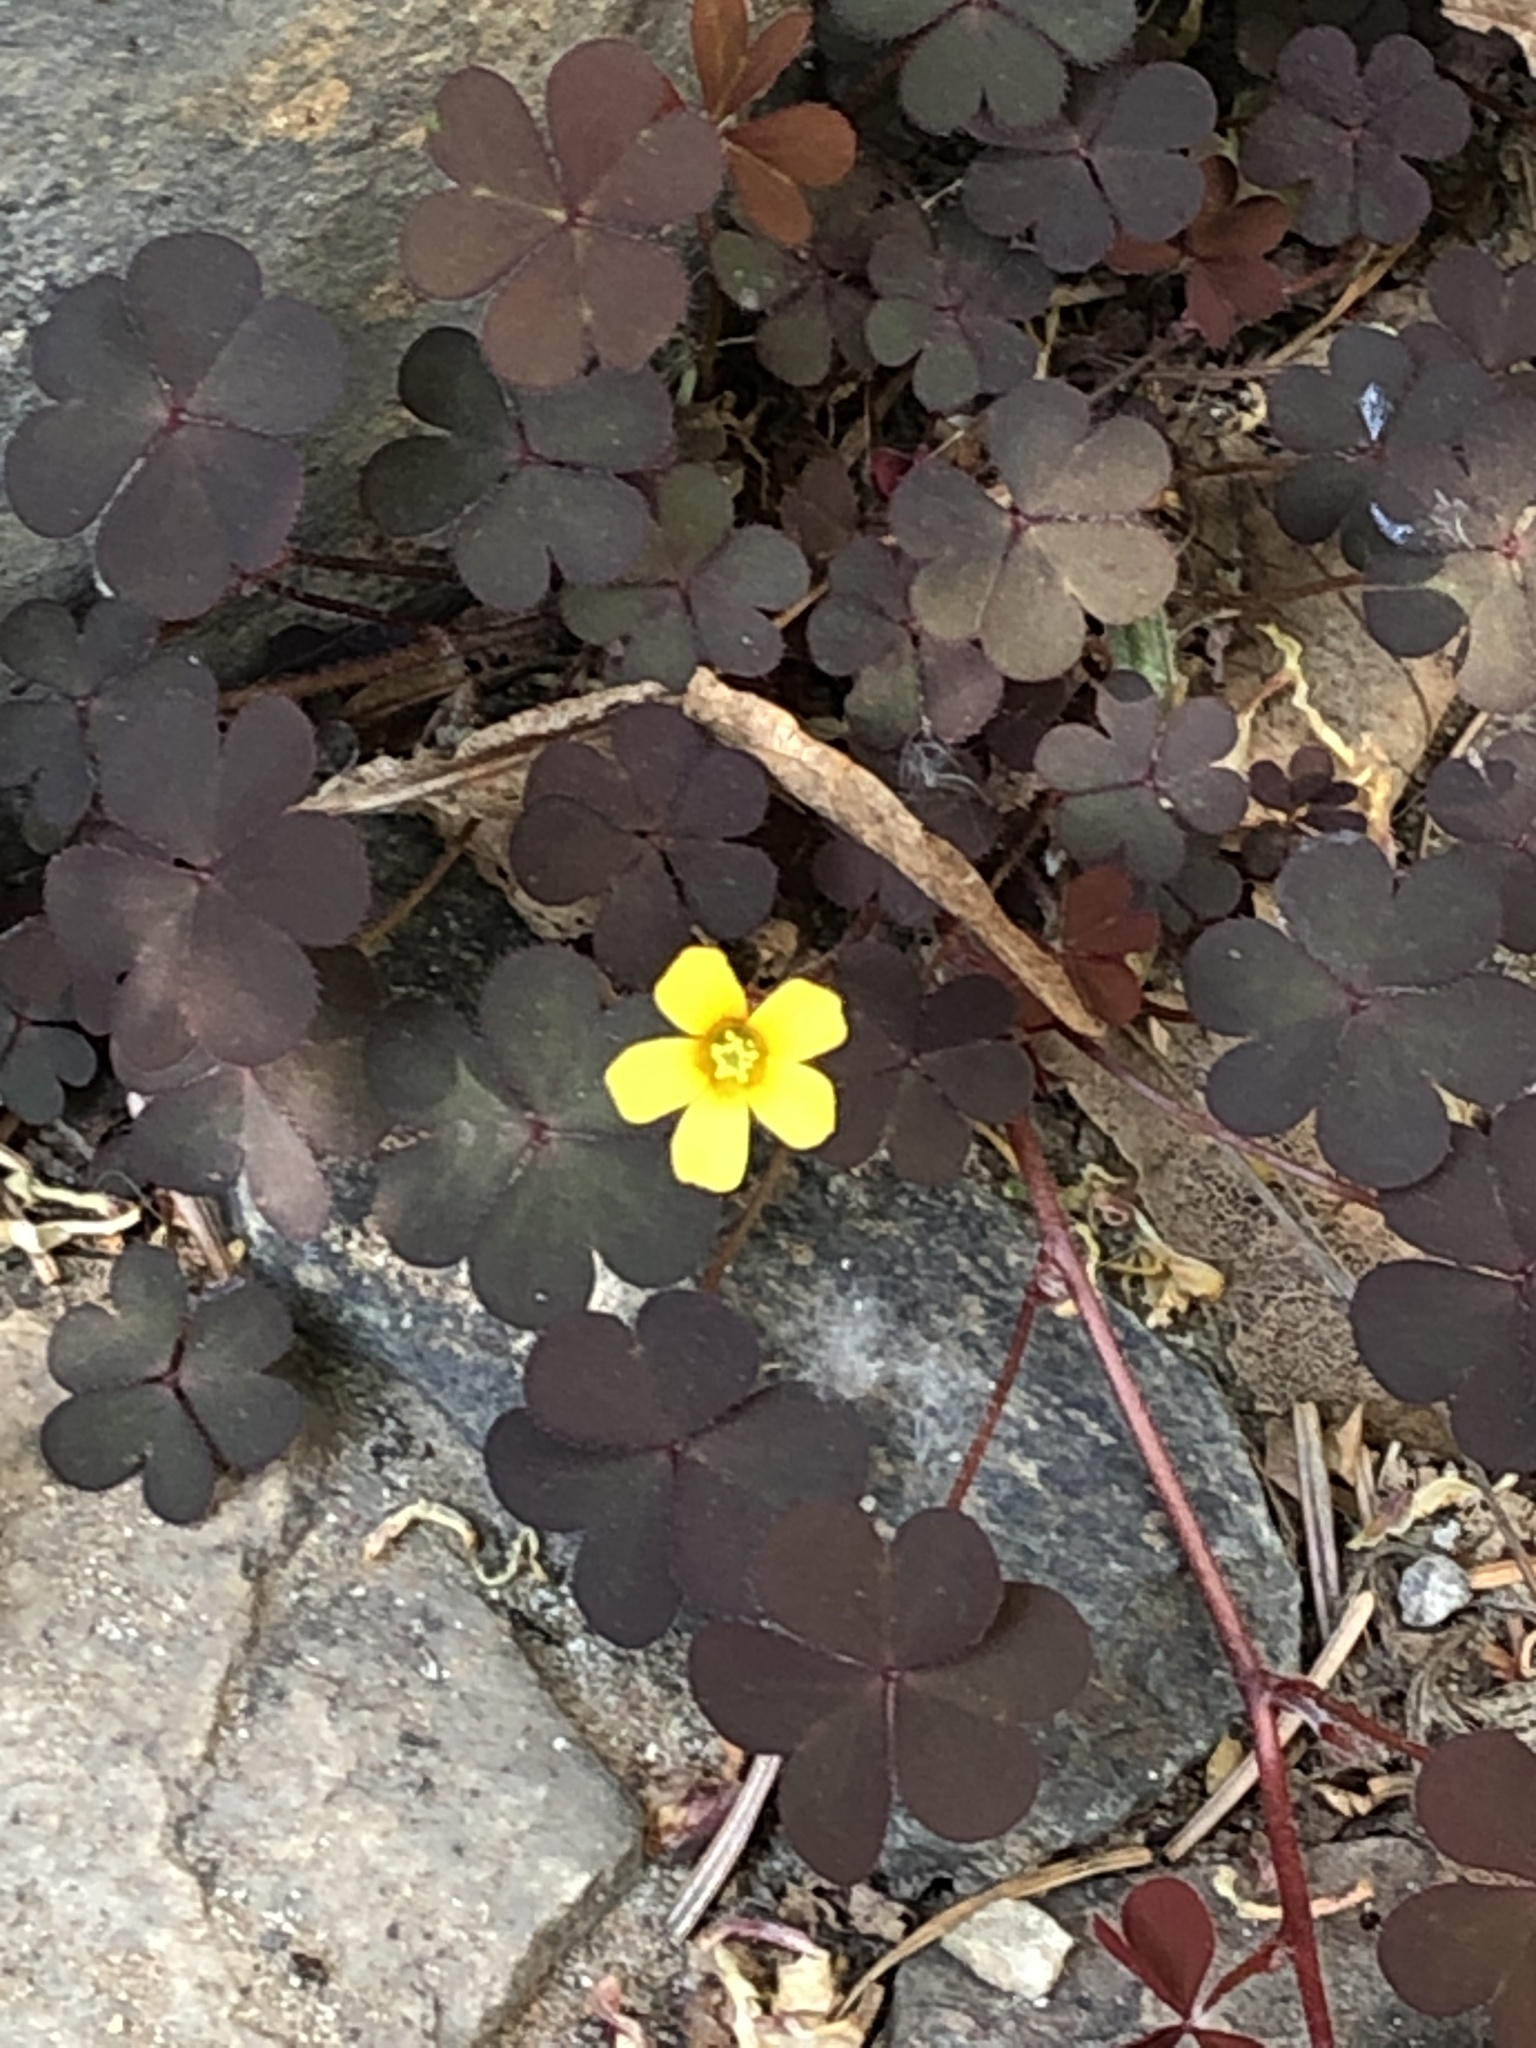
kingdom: Plantae
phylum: Tracheophyta
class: Magnoliopsida
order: Oxalidales
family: Oxalidaceae
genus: Oxalis
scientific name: Oxalis corniculata
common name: Procumbent yellow-sorrel
